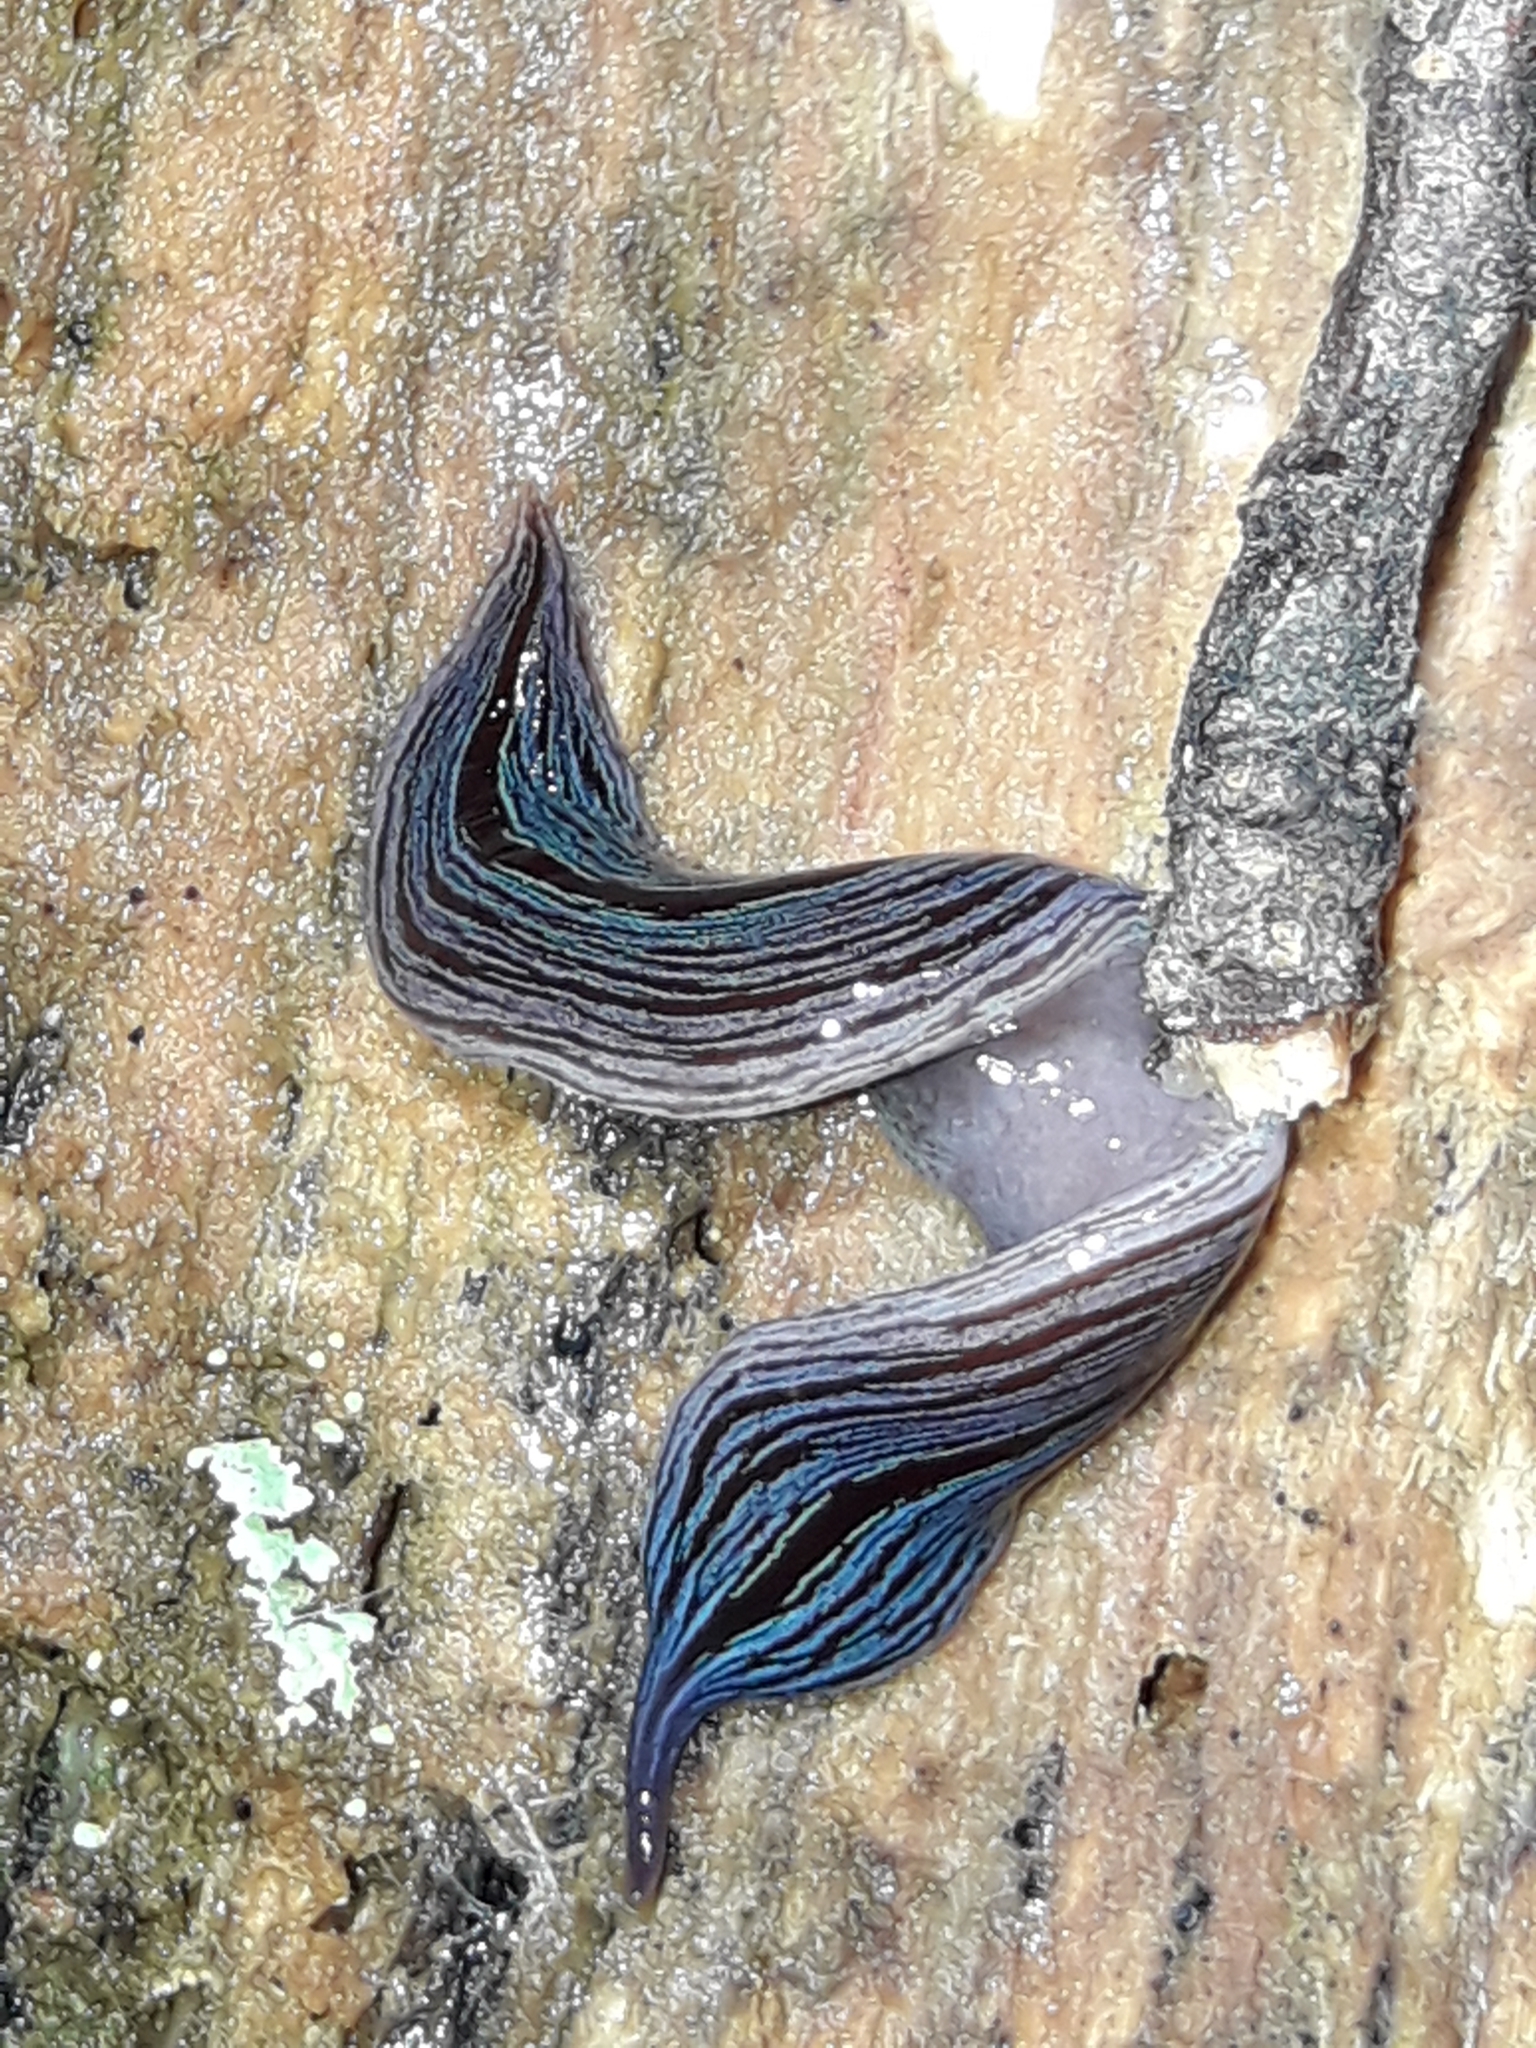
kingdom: Animalia
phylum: Platyhelminthes
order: Tricladida
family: Geoplanidae
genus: Newzealandia
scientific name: Newzealandia
